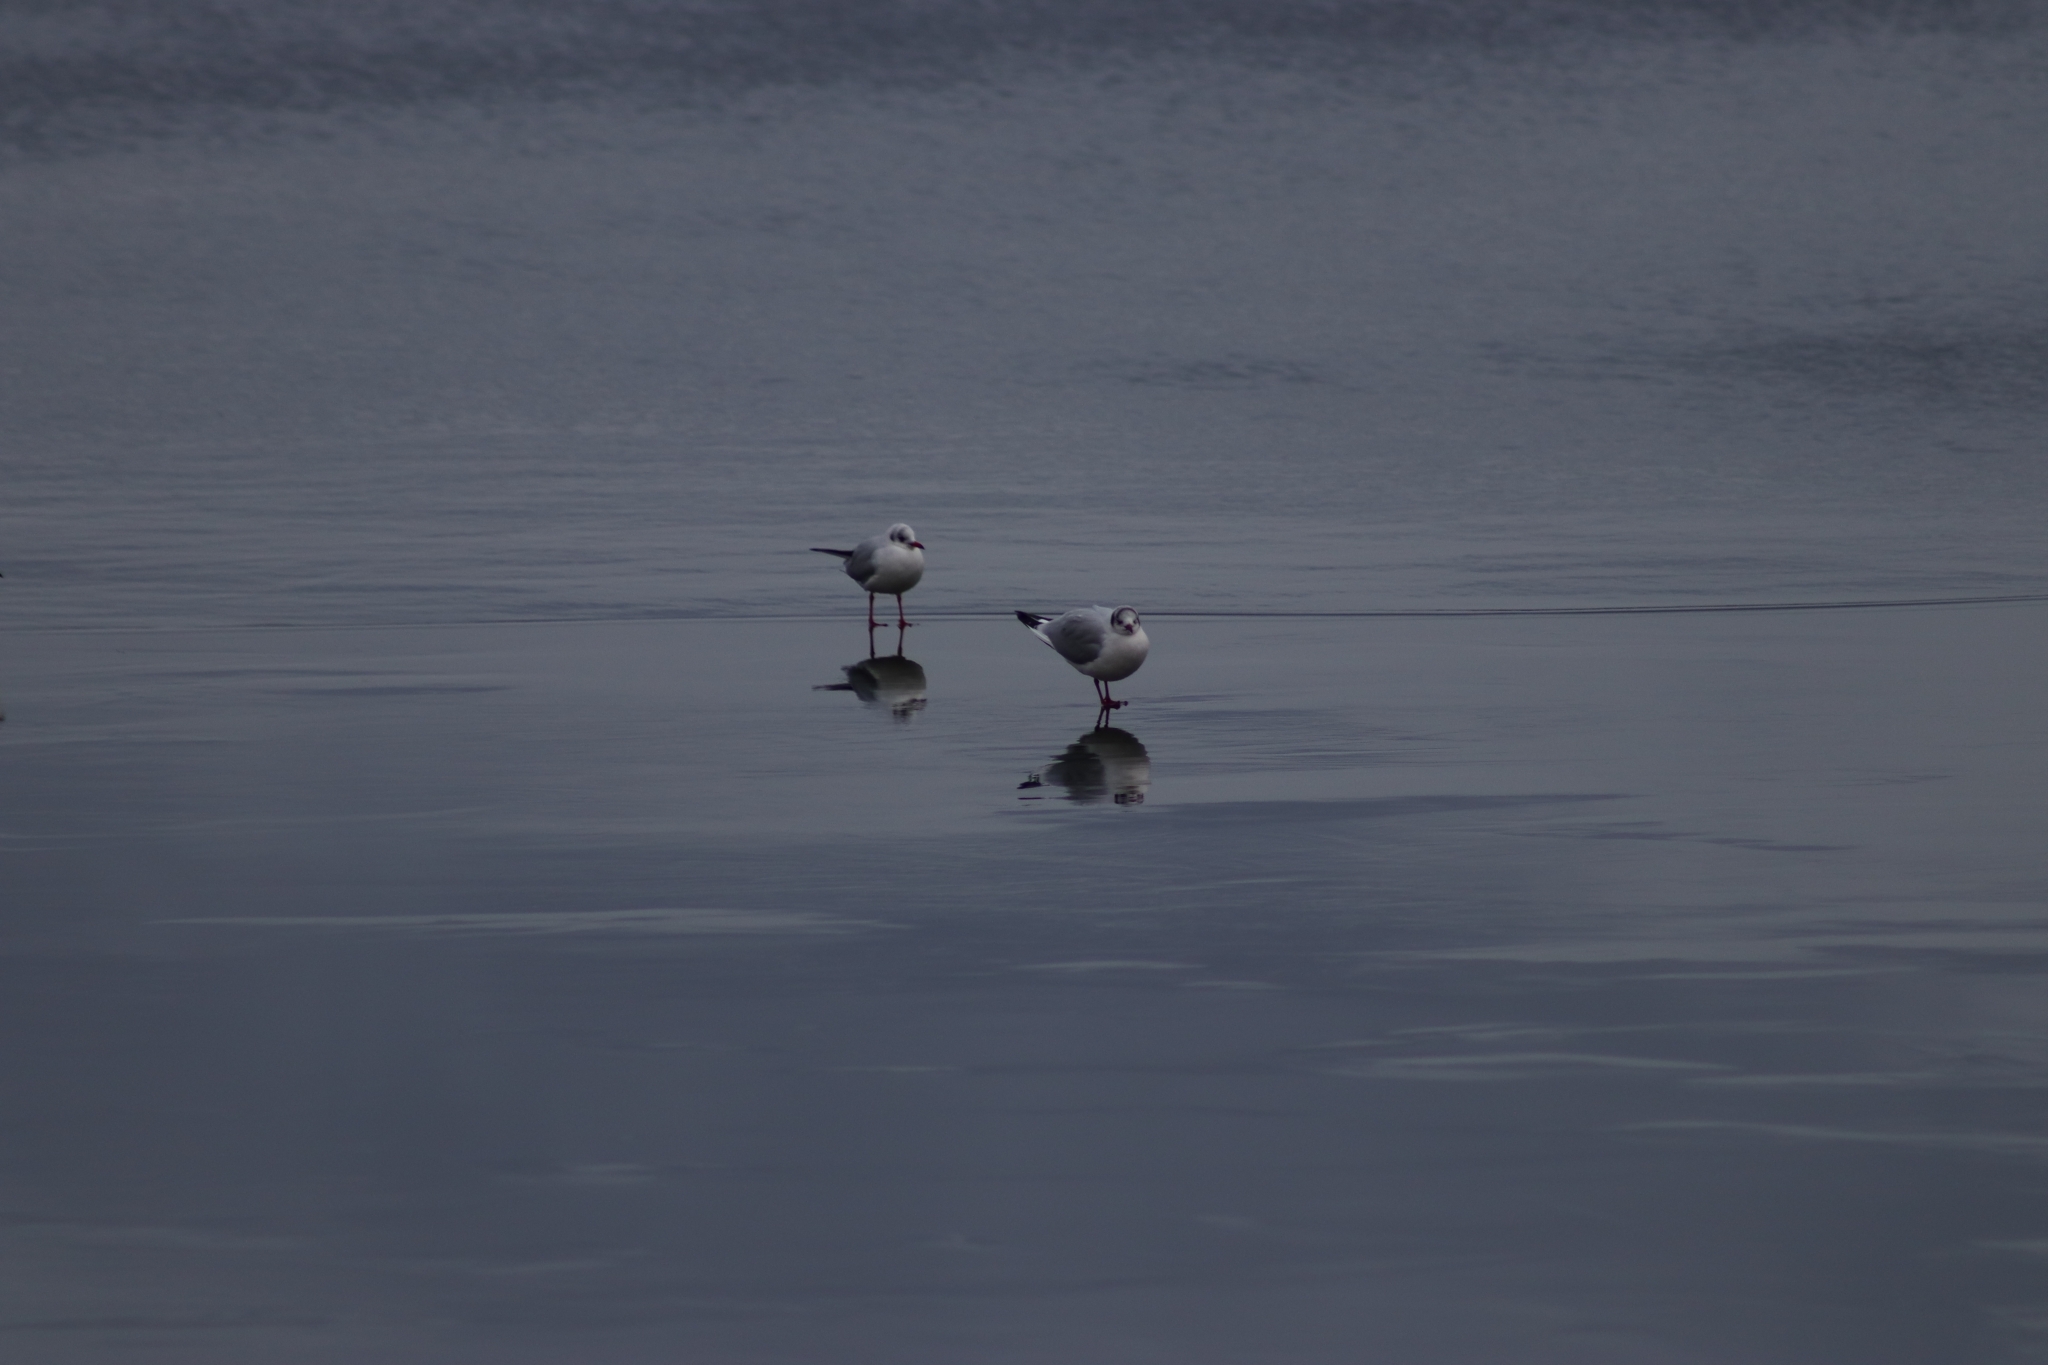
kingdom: Animalia
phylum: Chordata
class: Aves
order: Charadriiformes
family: Laridae
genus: Chroicocephalus
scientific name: Chroicocephalus ridibundus
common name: Black-headed gull
